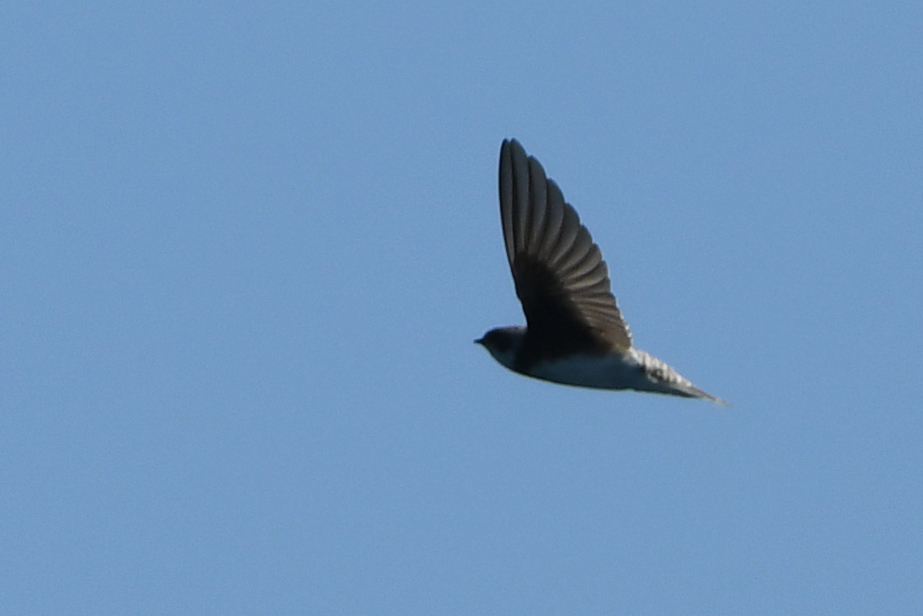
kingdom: Animalia
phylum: Chordata
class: Aves
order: Passeriformes
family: Hirundinidae
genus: Riparia
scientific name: Riparia riparia
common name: Sand martin
